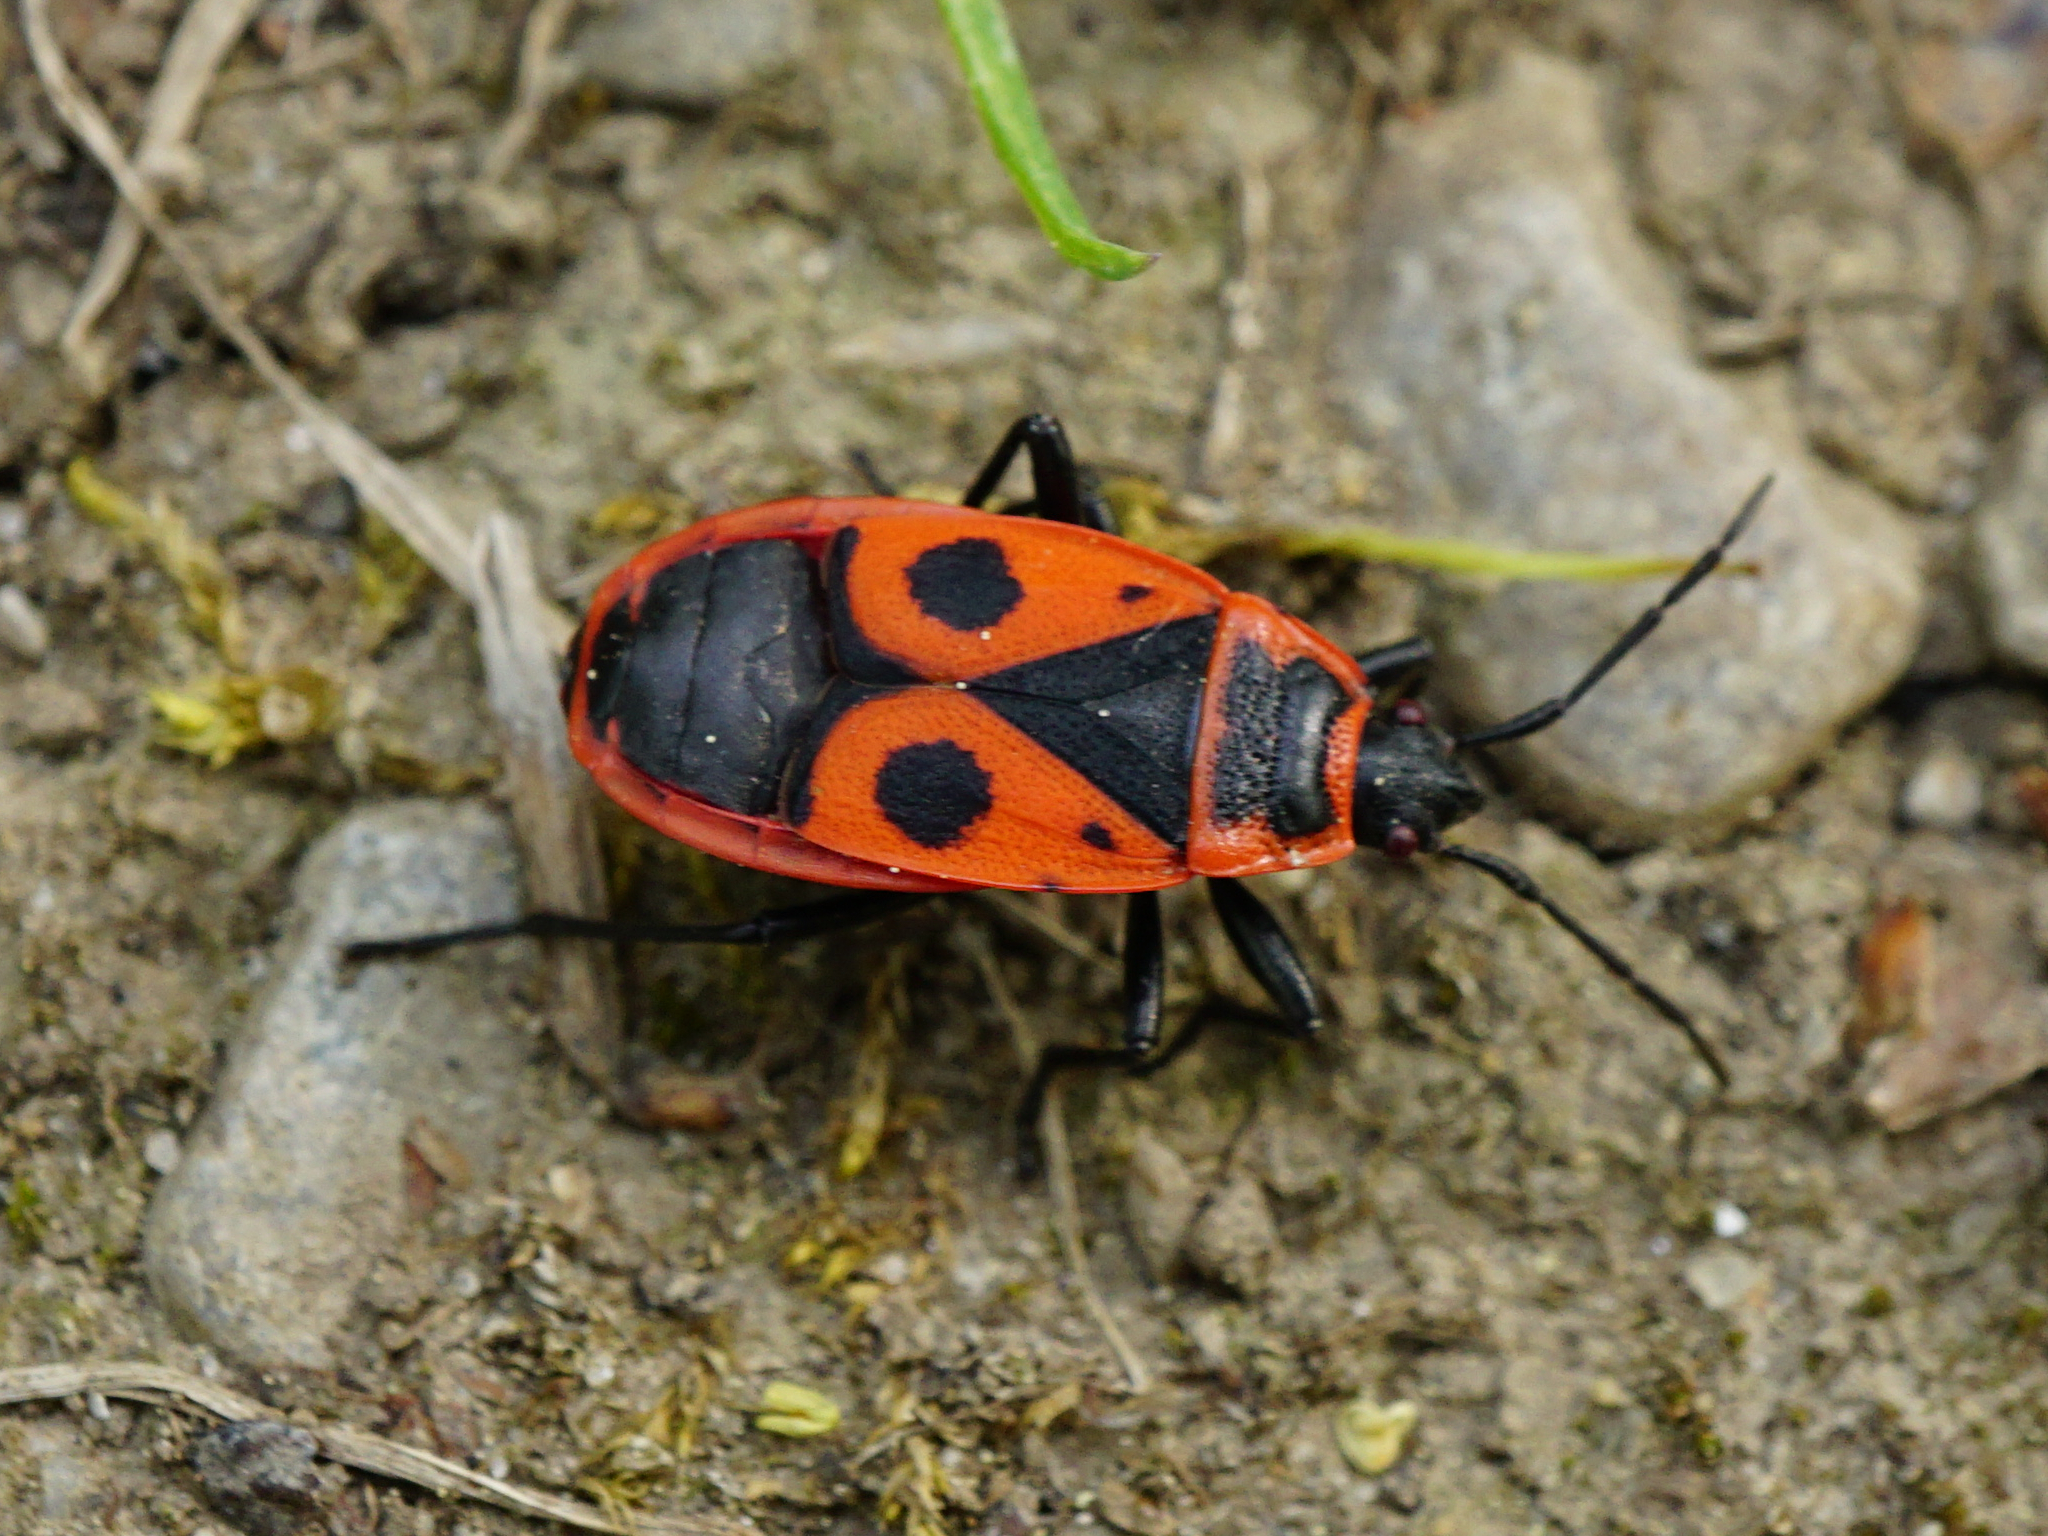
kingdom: Animalia
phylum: Arthropoda
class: Insecta
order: Hemiptera
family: Pyrrhocoridae
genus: Pyrrhocoris
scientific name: Pyrrhocoris apterus
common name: Firebug
